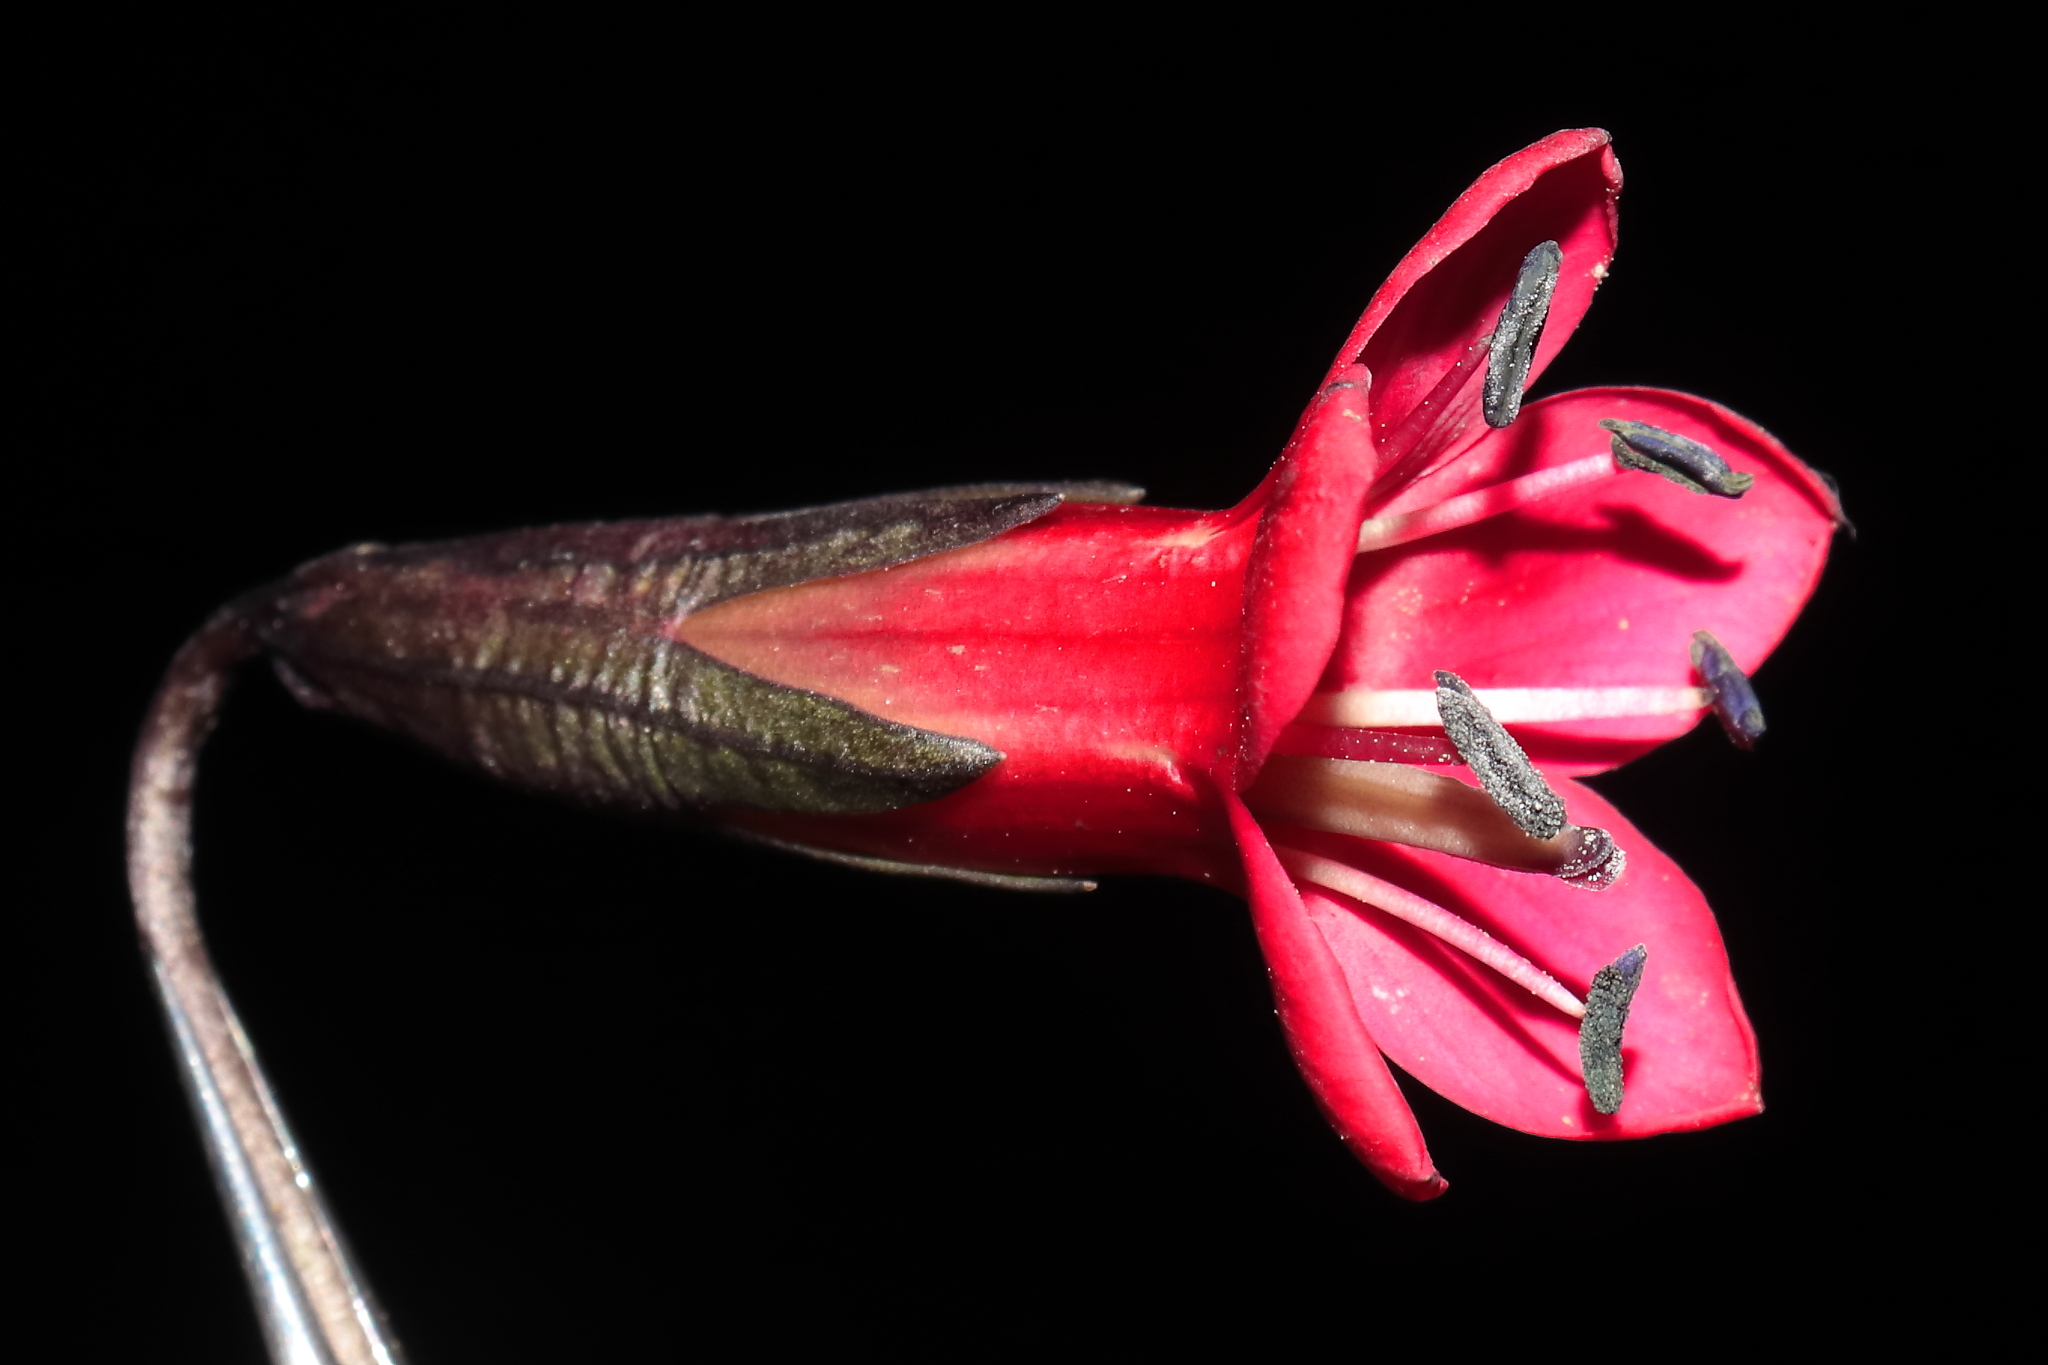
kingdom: Plantae
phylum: Tracheophyta
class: Magnoliopsida
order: Gentianales
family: Gentianaceae
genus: Gentianella
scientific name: Gentianella weberbaueri
